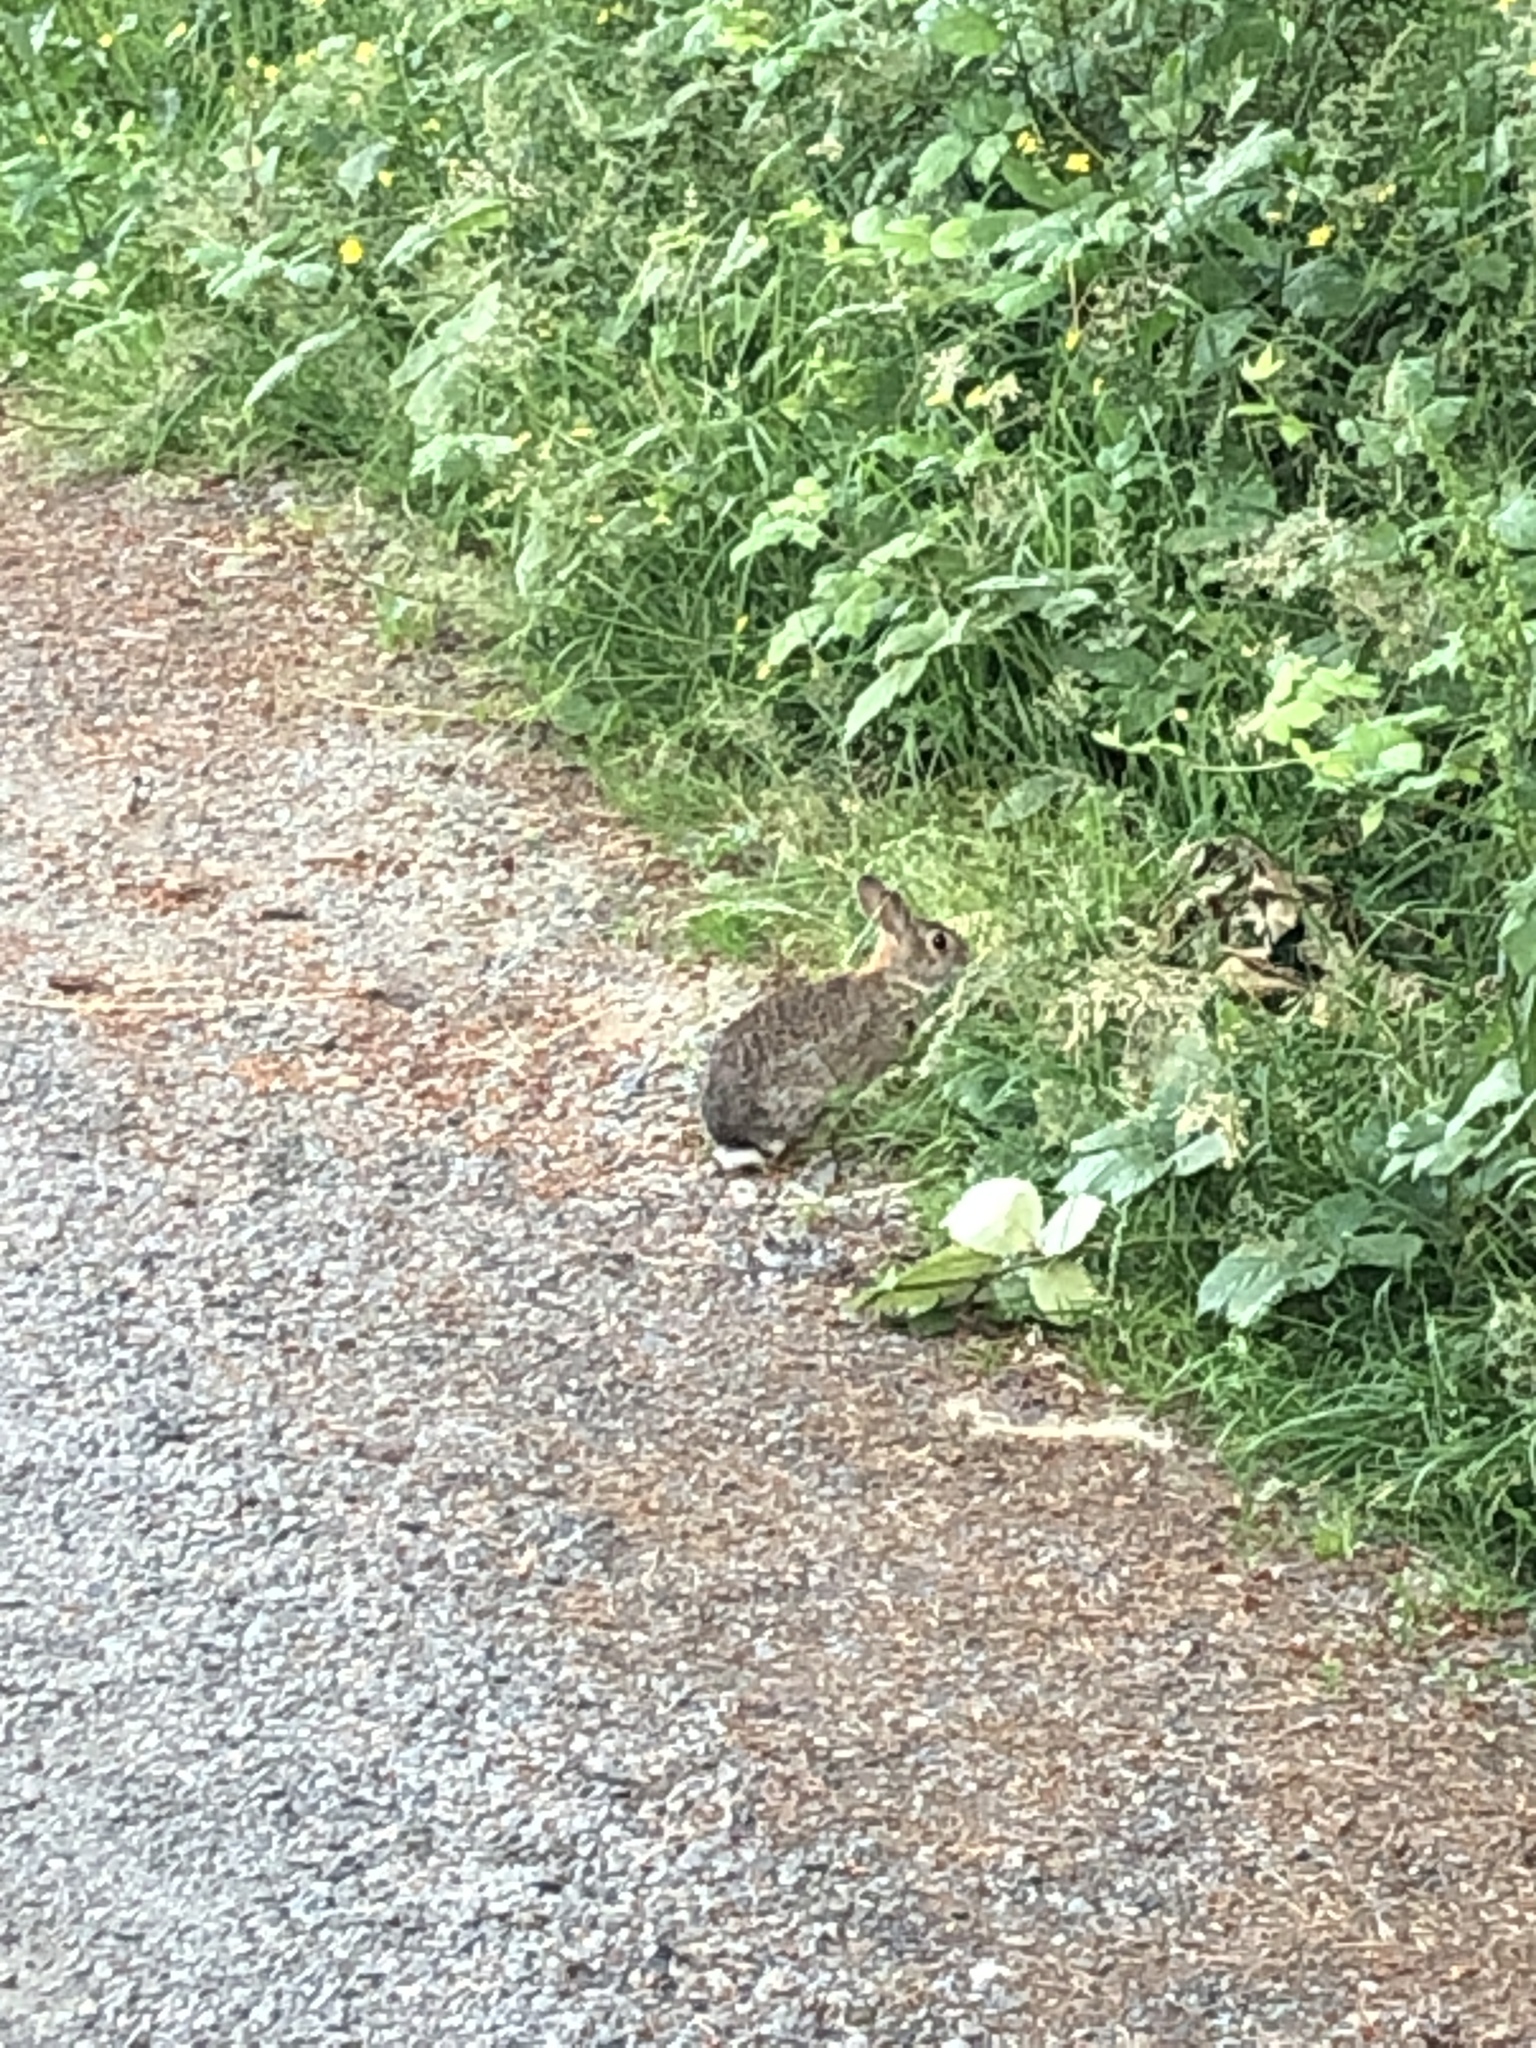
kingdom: Animalia
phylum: Chordata
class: Mammalia
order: Lagomorpha
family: Leporidae
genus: Sylvilagus
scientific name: Sylvilagus floridanus
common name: Eastern cottontail
